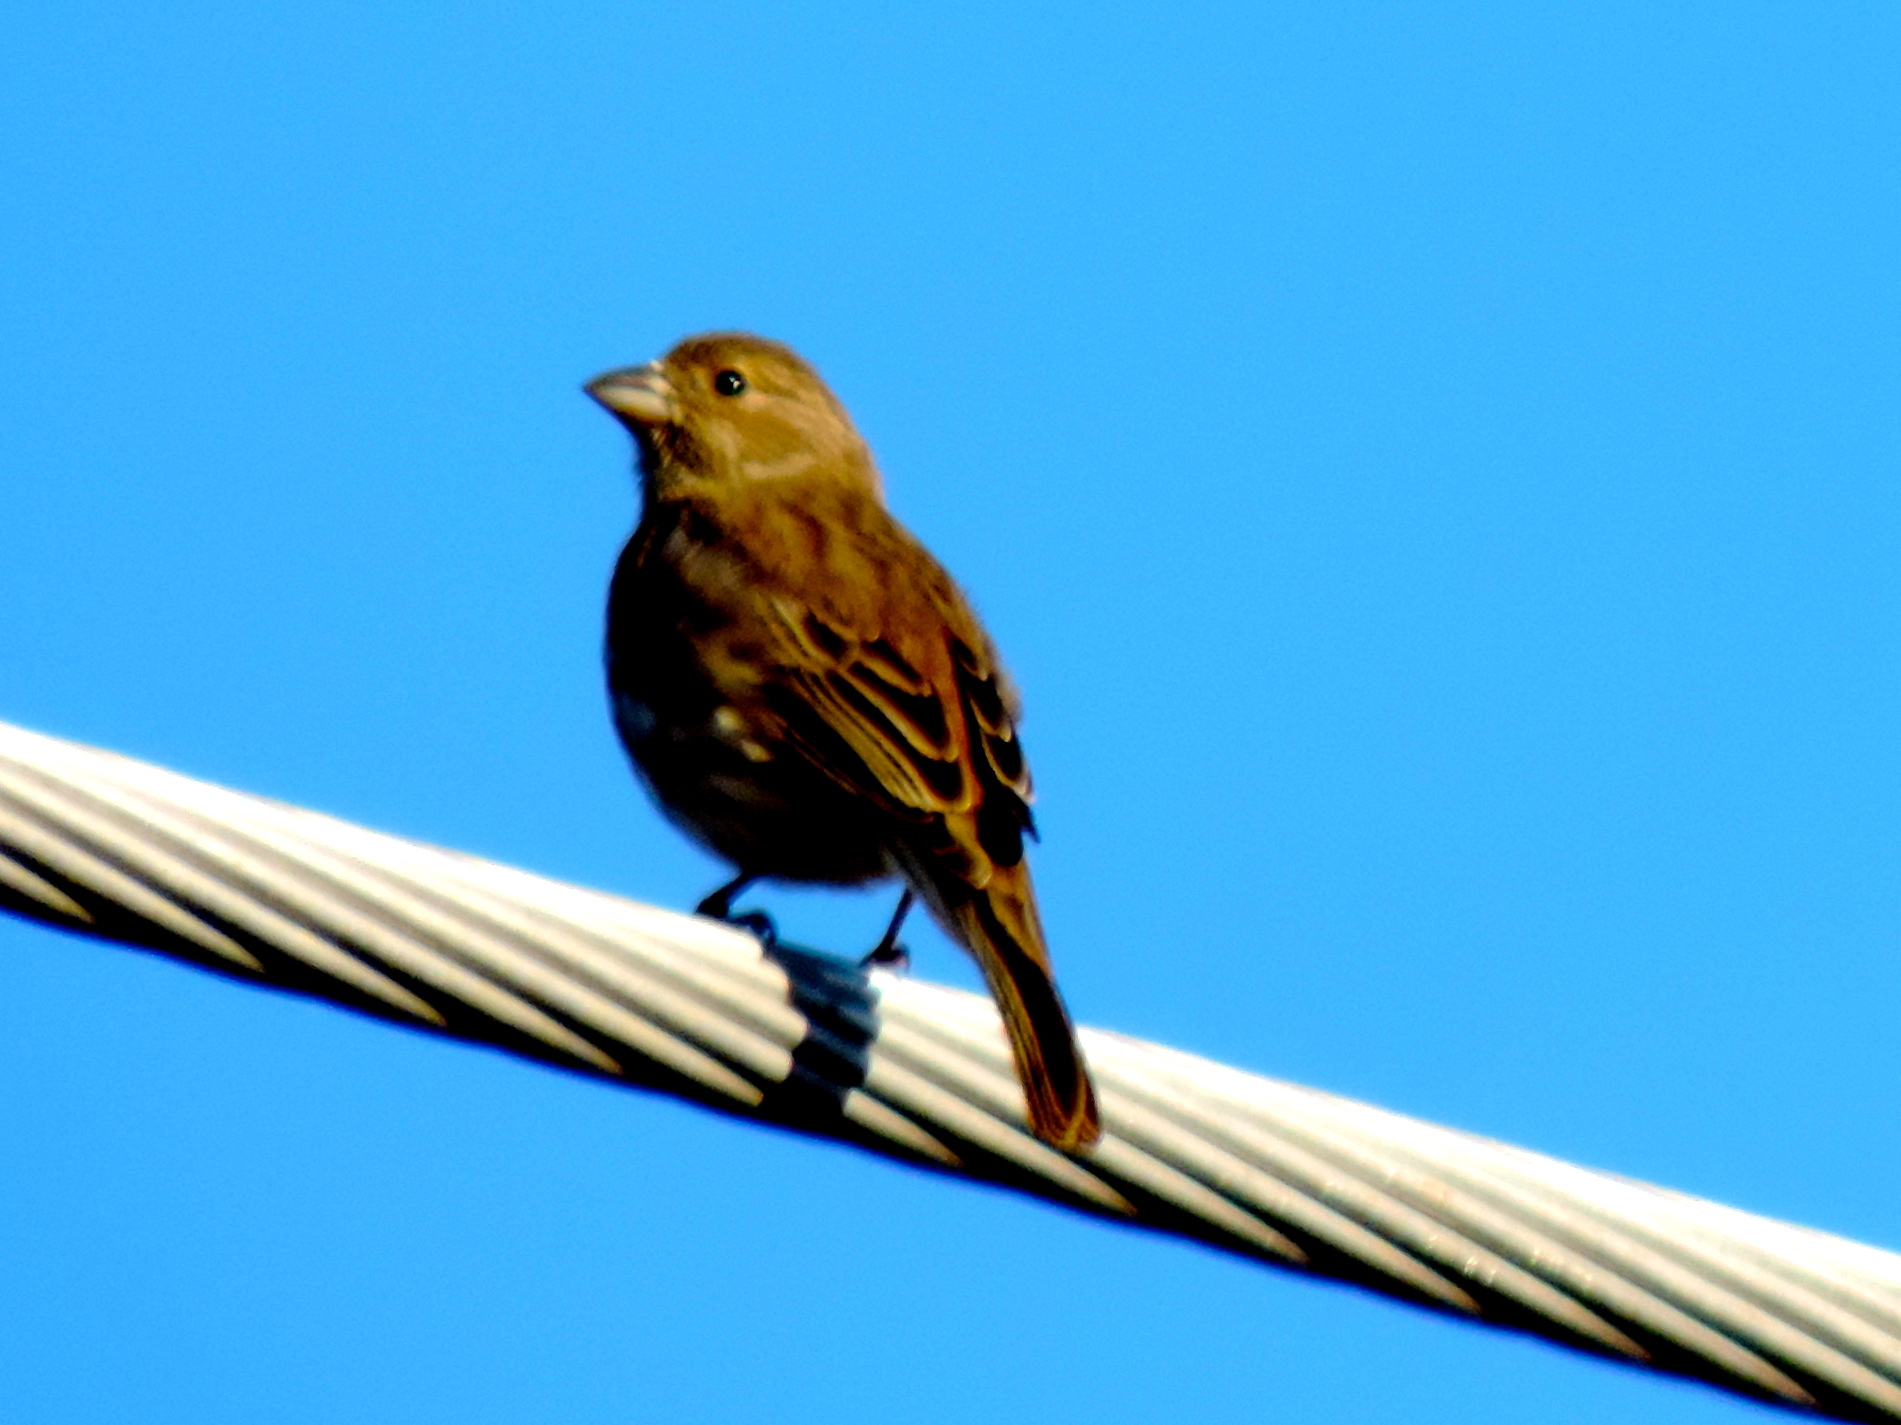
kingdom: Animalia
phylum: Chordata
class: Aves
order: Passeriformes
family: Cardinalidae
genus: Spiza
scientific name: Spiza americana
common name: Dickcissel
